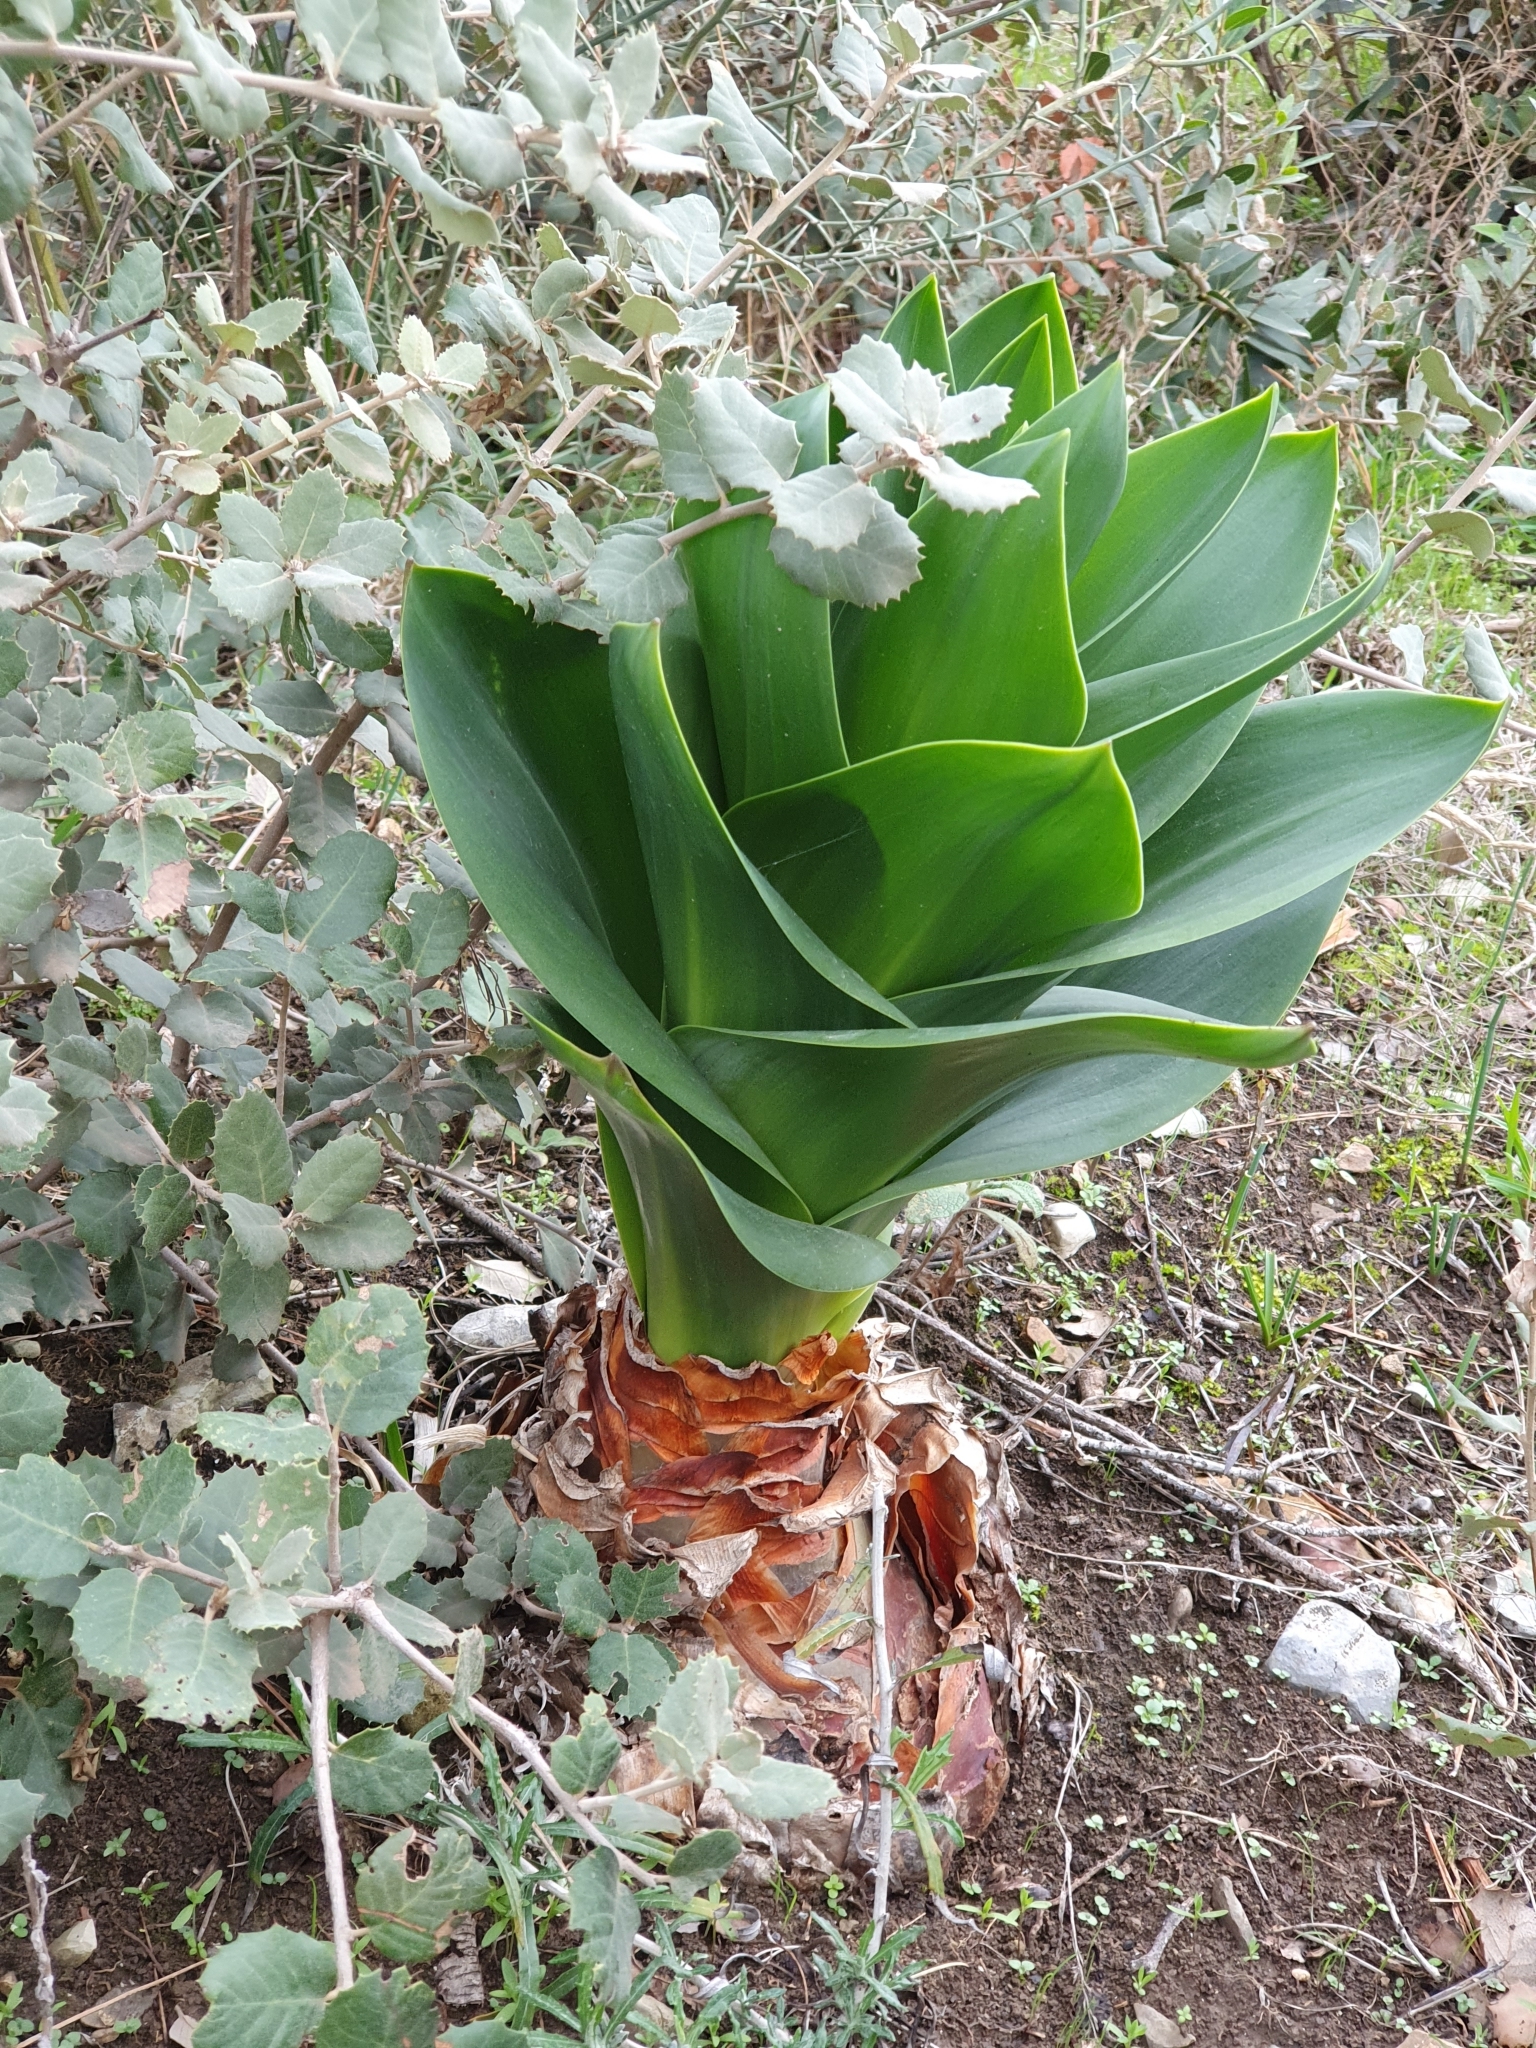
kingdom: Plantae
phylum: Tracheophyta
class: Liliopsida
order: Asparagales
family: Asparagaceae
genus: Drimia
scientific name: Drimia numidica
